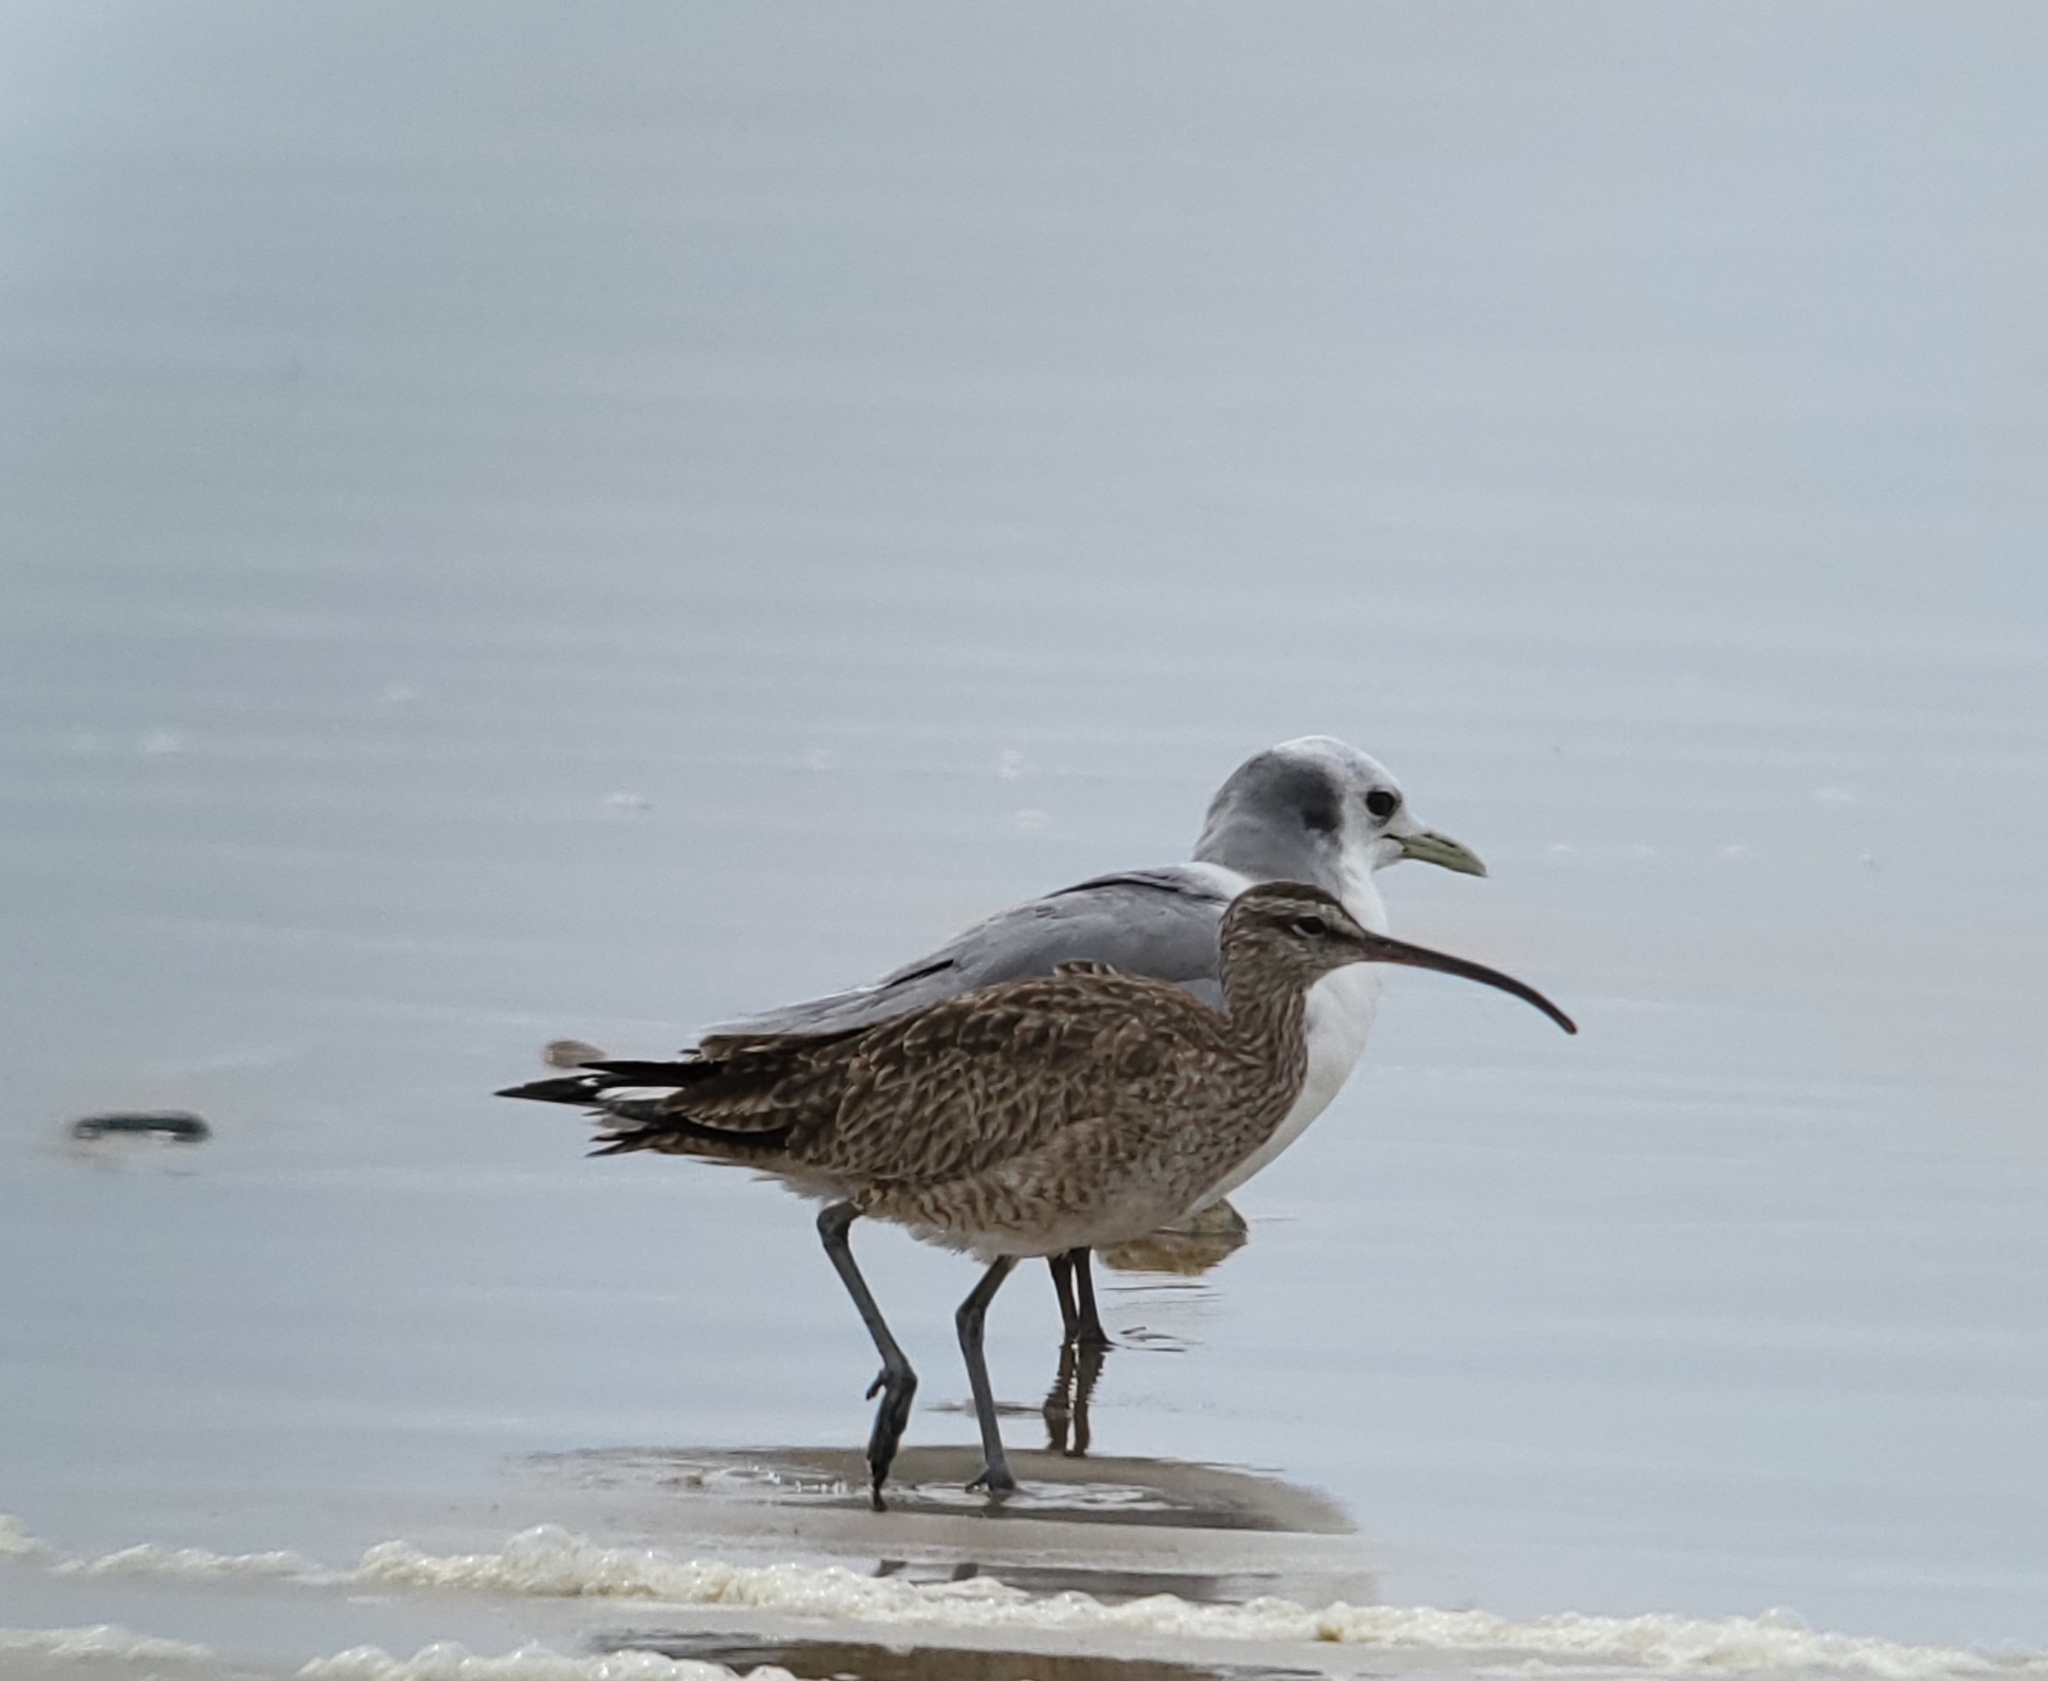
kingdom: Animalia
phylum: Chordata
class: Aves
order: Charadriiformes
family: Scolopacidae
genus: Numenius
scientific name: Numenius phaeopus
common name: Whimbrel
